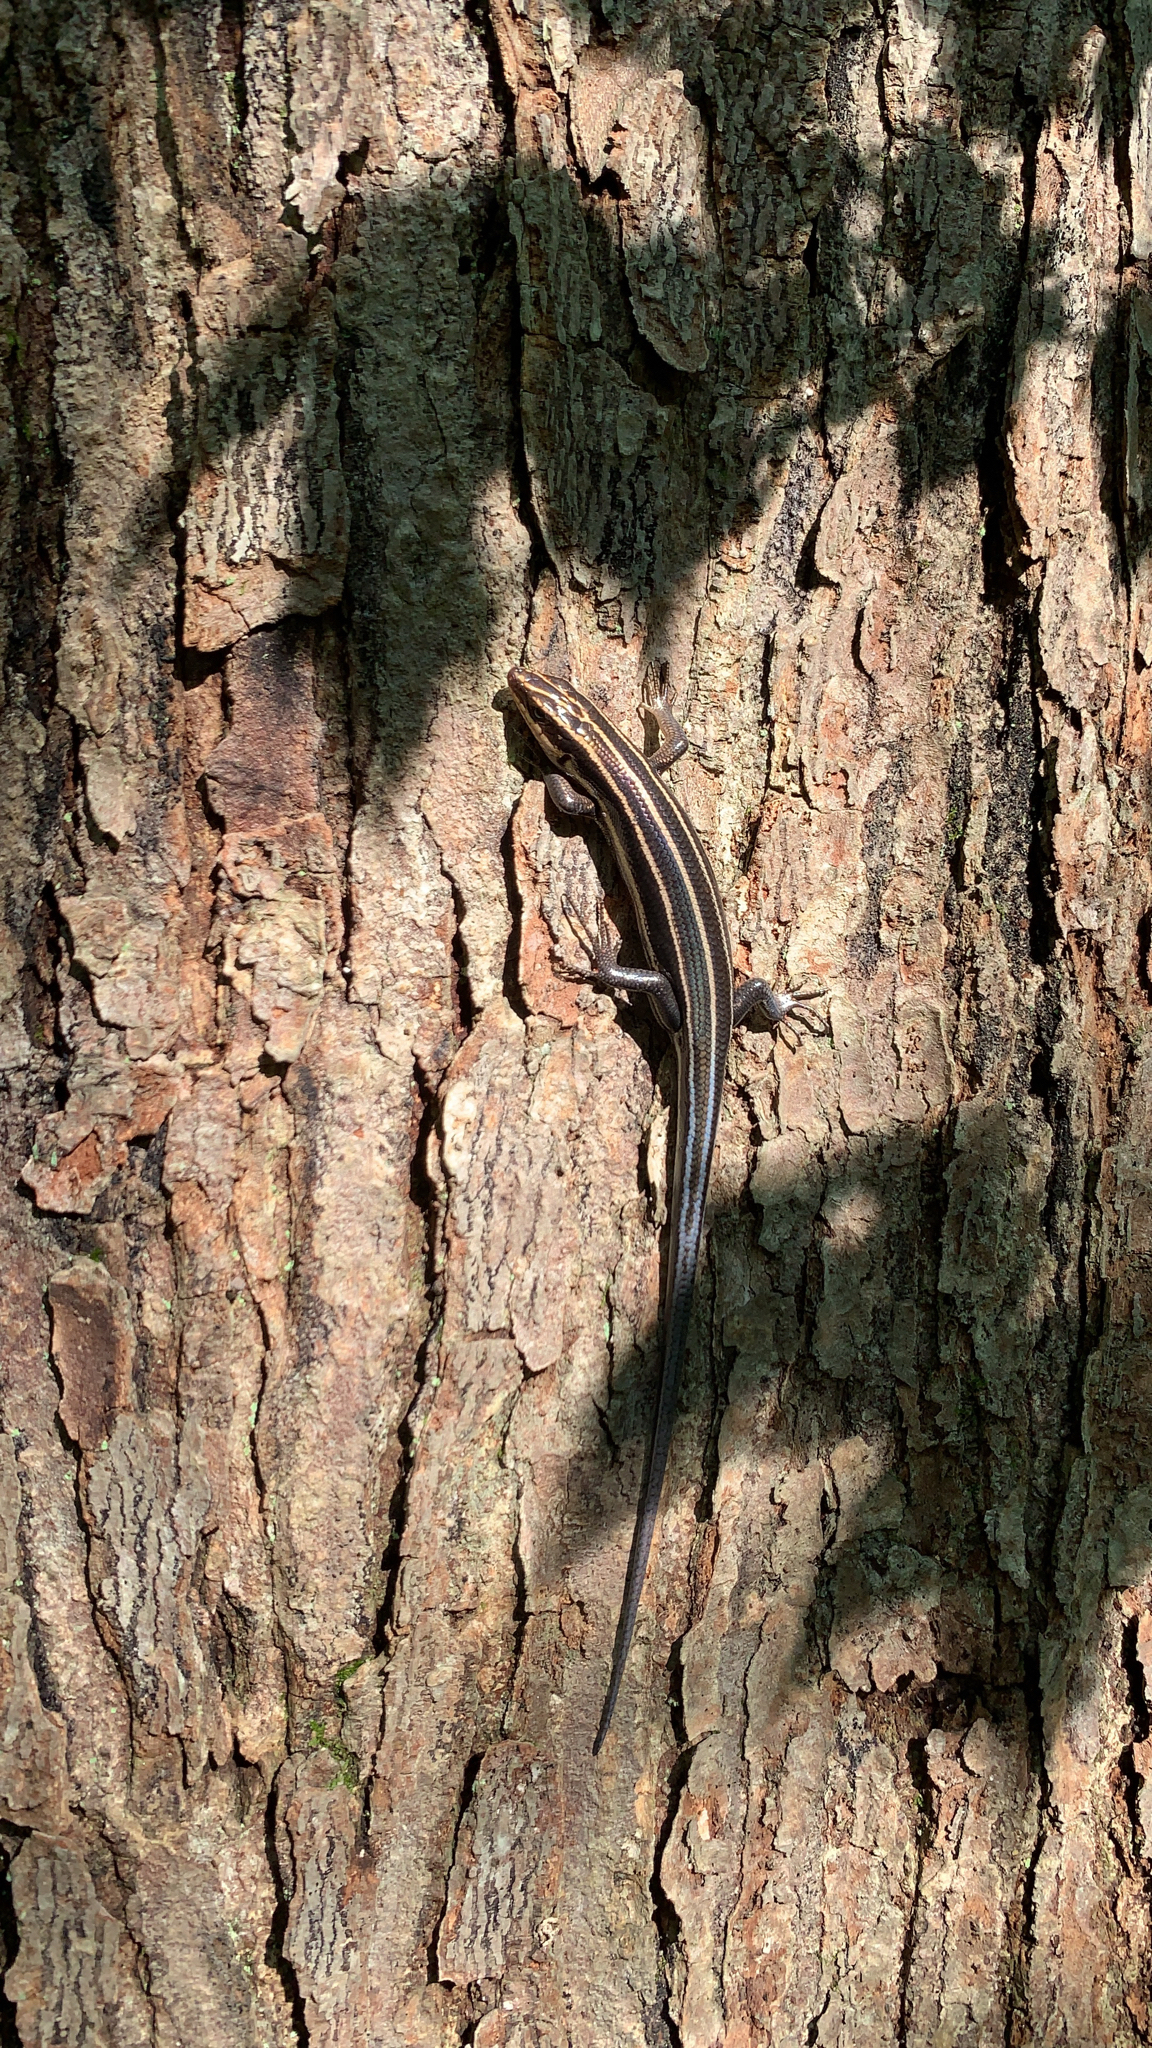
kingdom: Animalia
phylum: Chordata
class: Squamata
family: Scincidae
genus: Plestiodon
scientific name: Plestiodon fasciatus
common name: Five-lined skink
